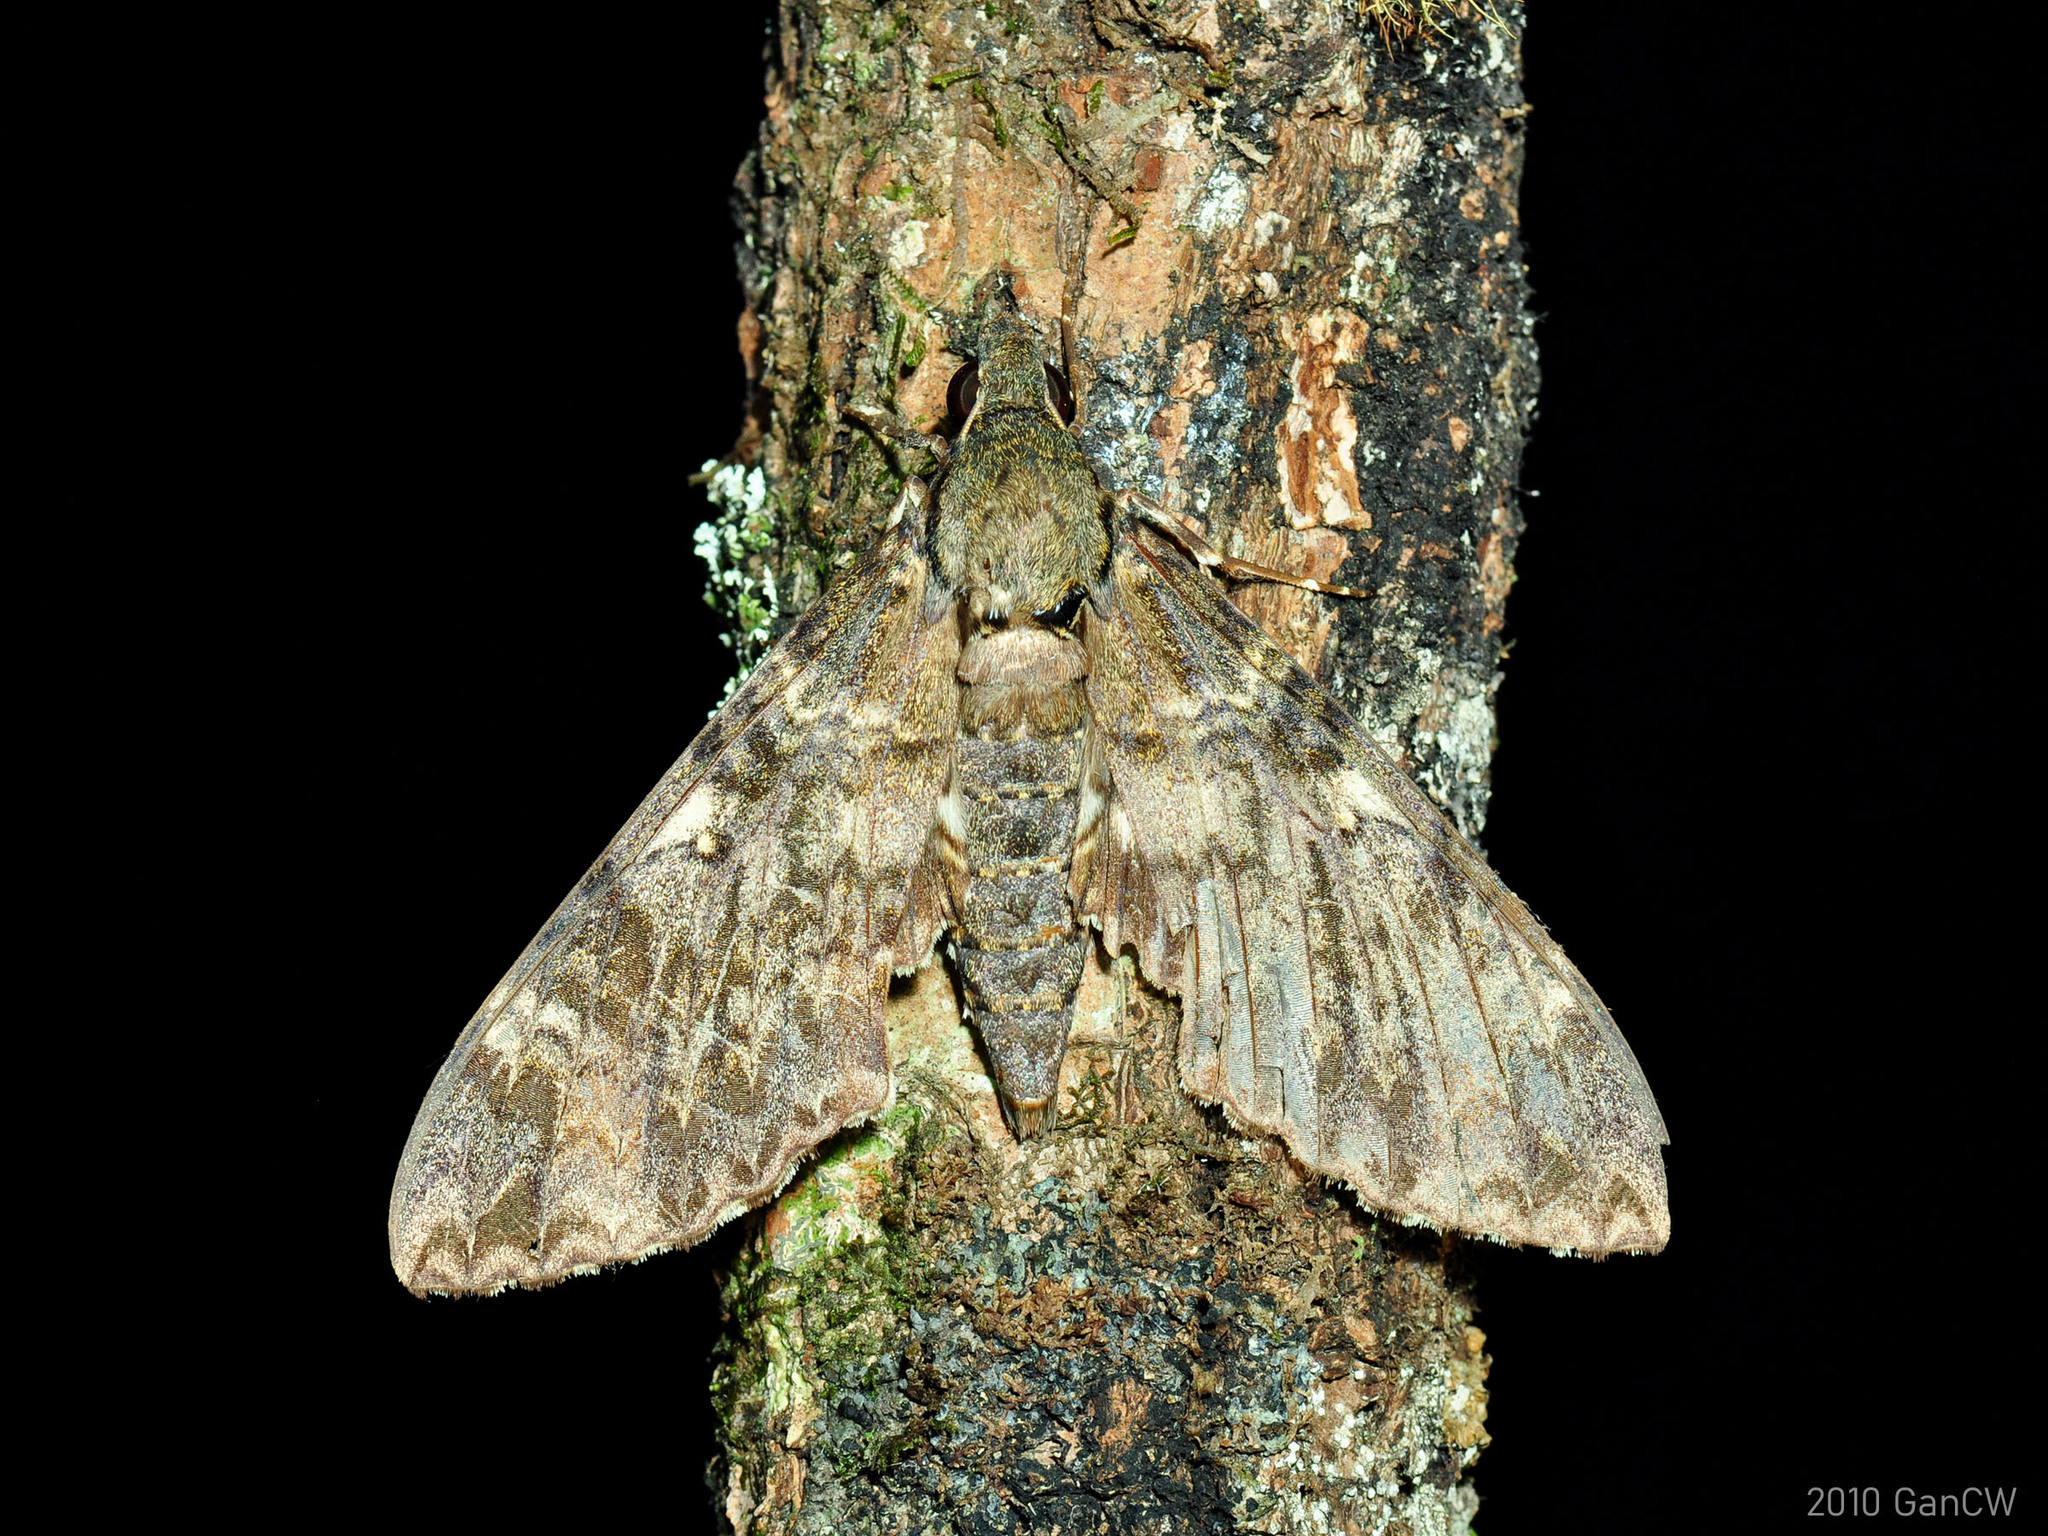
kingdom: Animalia
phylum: Arthropoda
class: Insecta
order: Lepidoptera
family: Sphingidae
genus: Meganoton
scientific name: Meganoton nyctiphanes
